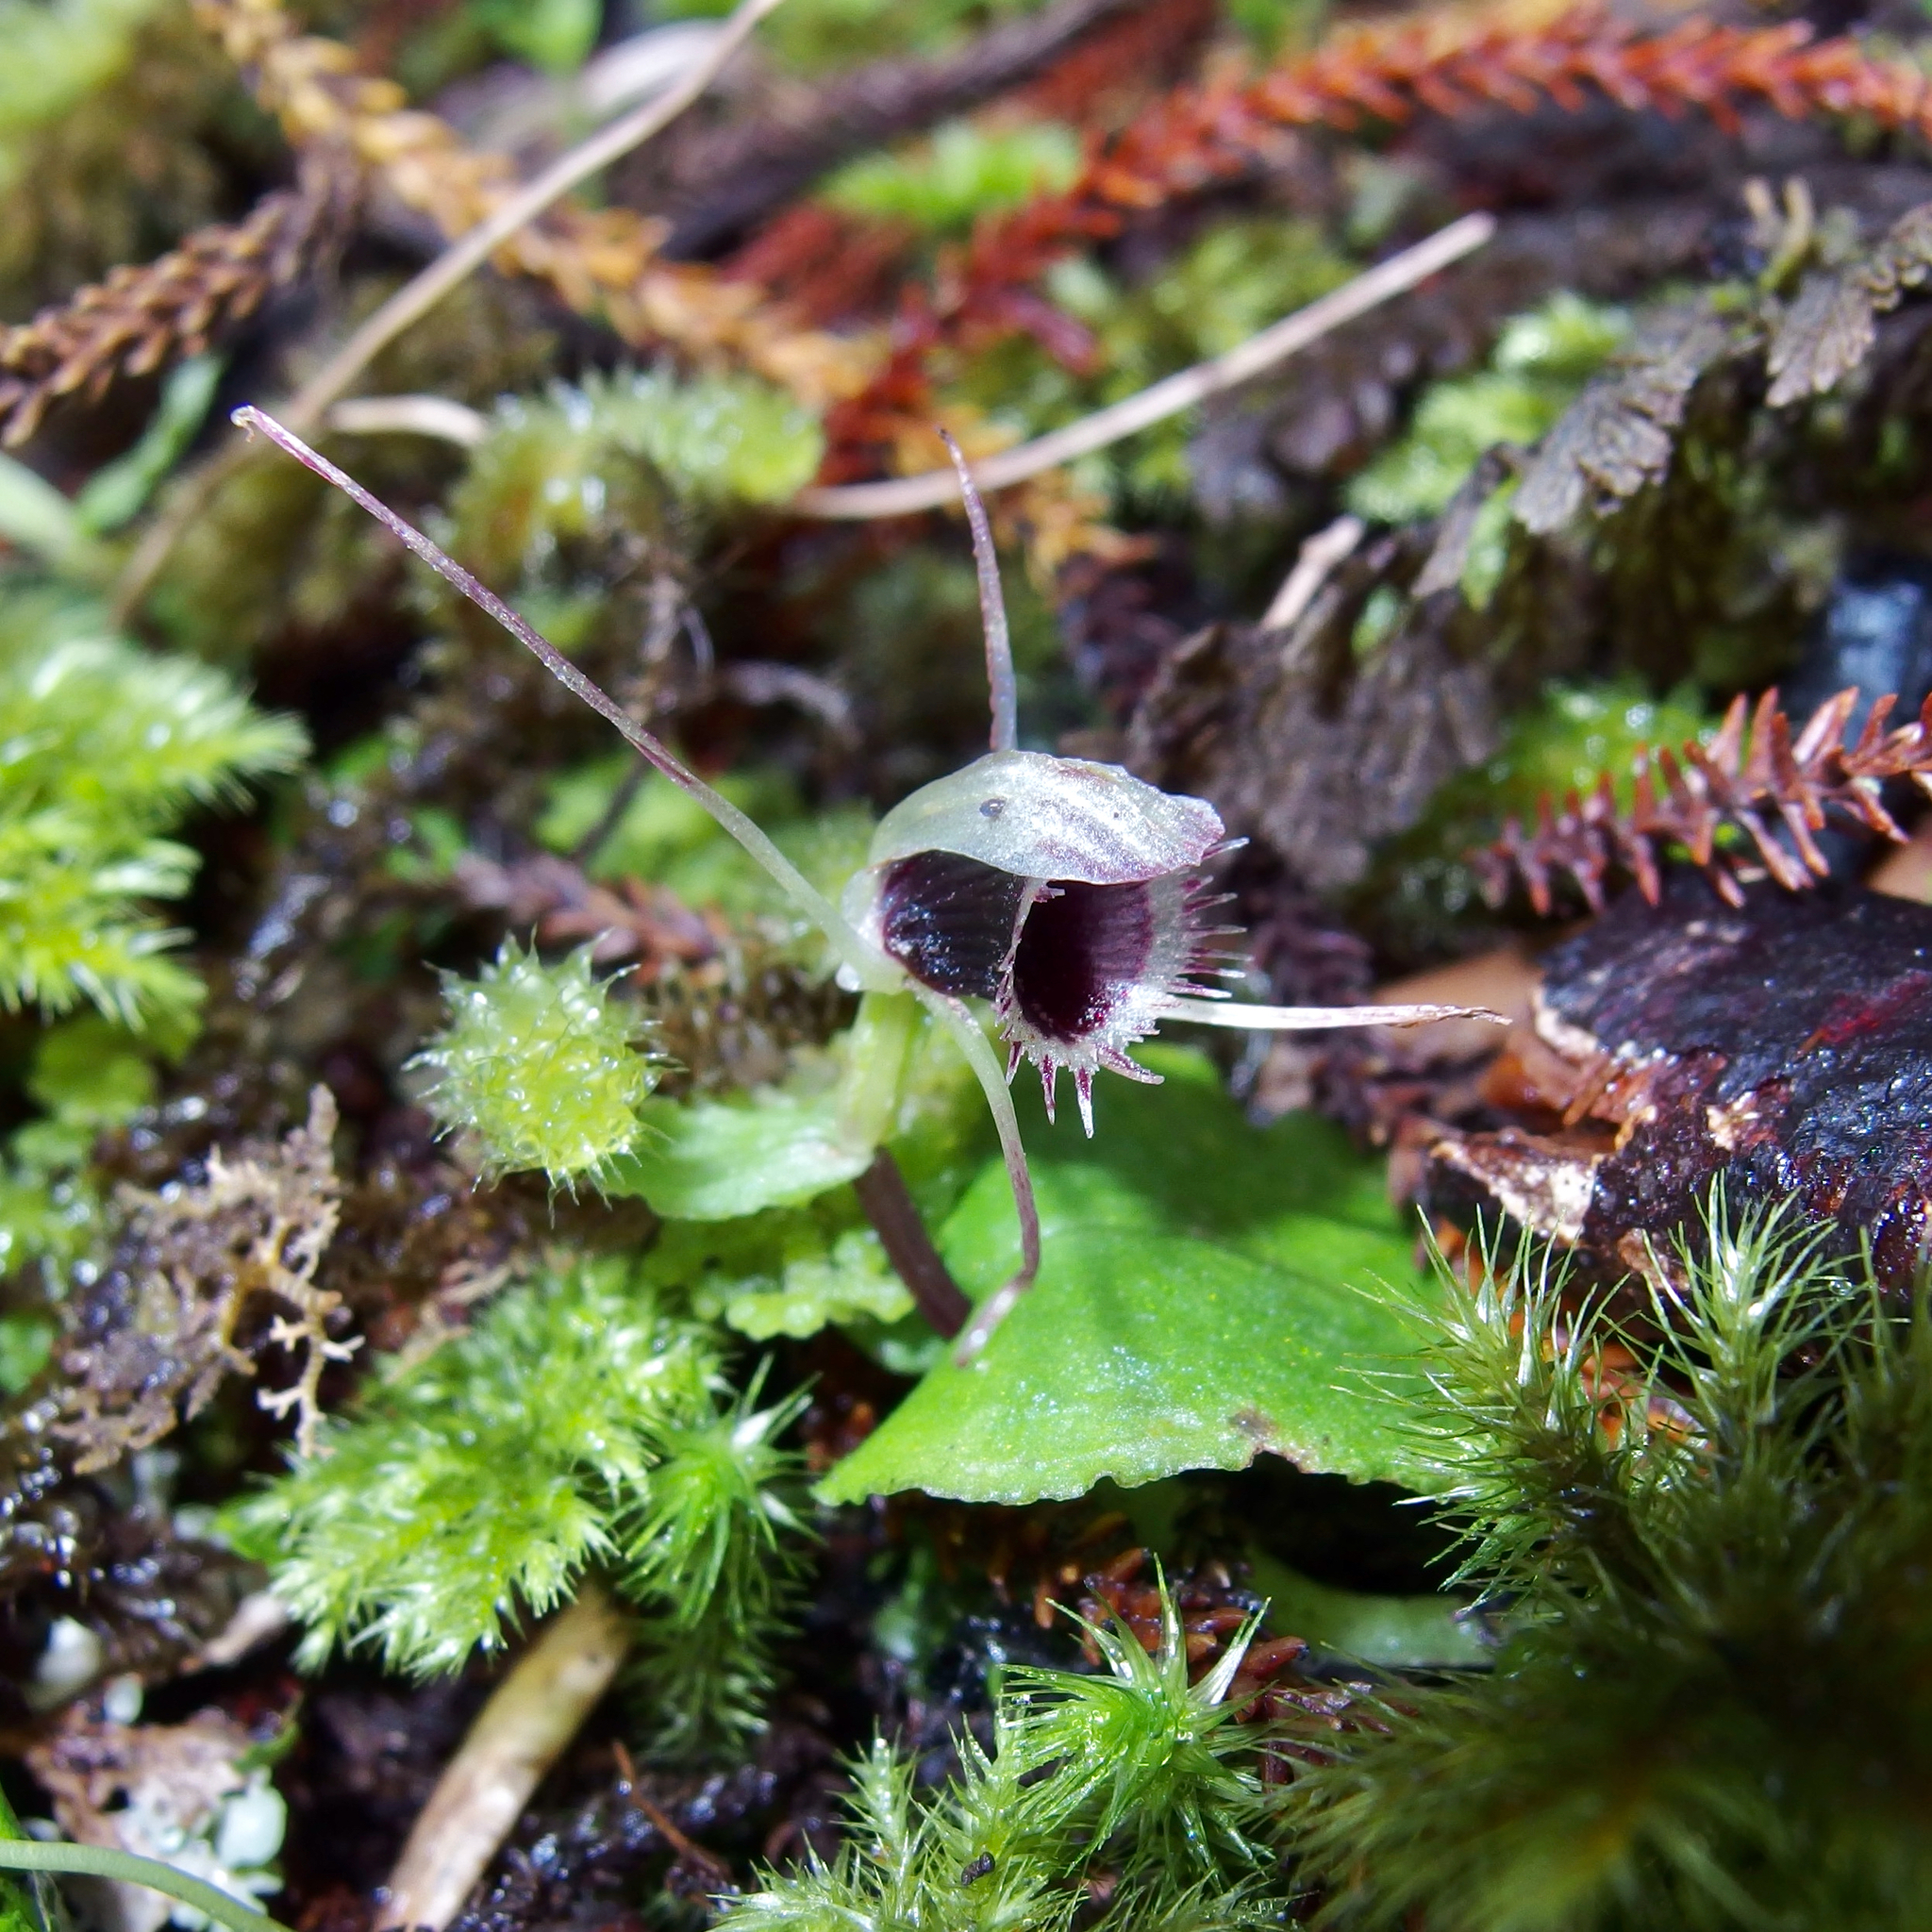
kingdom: Plantae
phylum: Tracheophyta
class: Liliopsida
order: Asparagales
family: Orchidaceae
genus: Corybas
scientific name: Corybas oblongus
